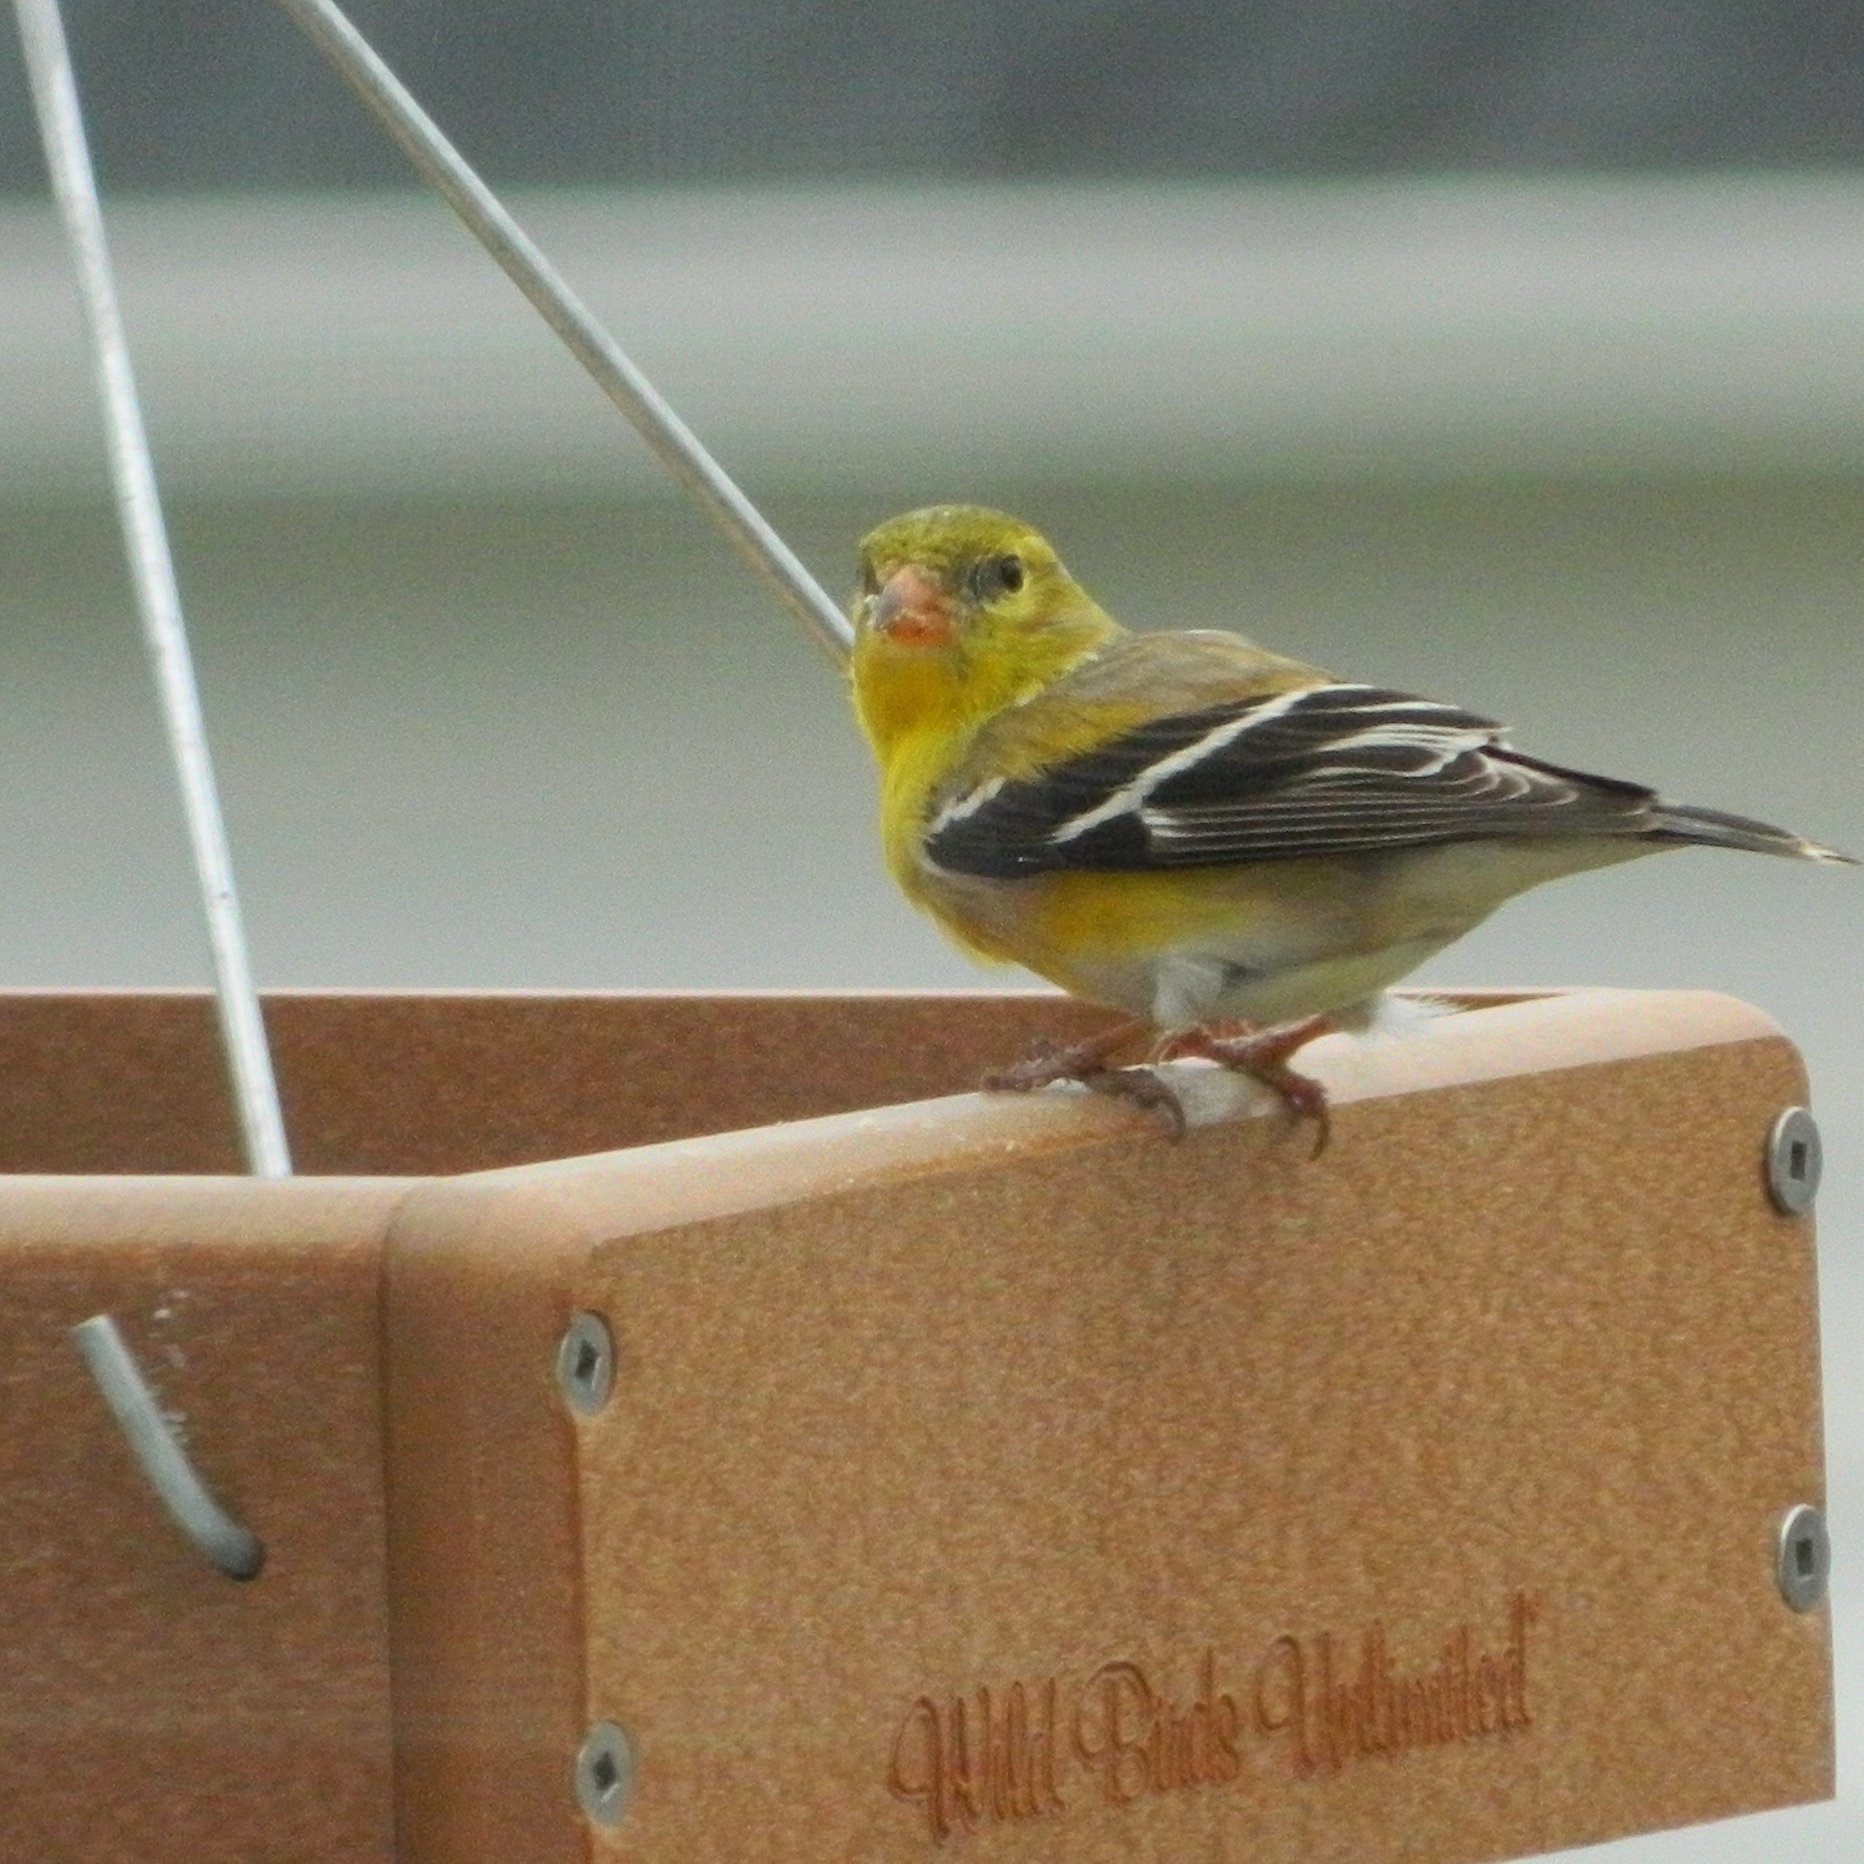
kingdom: Animalia
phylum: Chordata
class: Aves
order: Passeriformes
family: Fringillidae
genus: Spinus
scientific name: Spinus tristis
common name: American goldfinch
